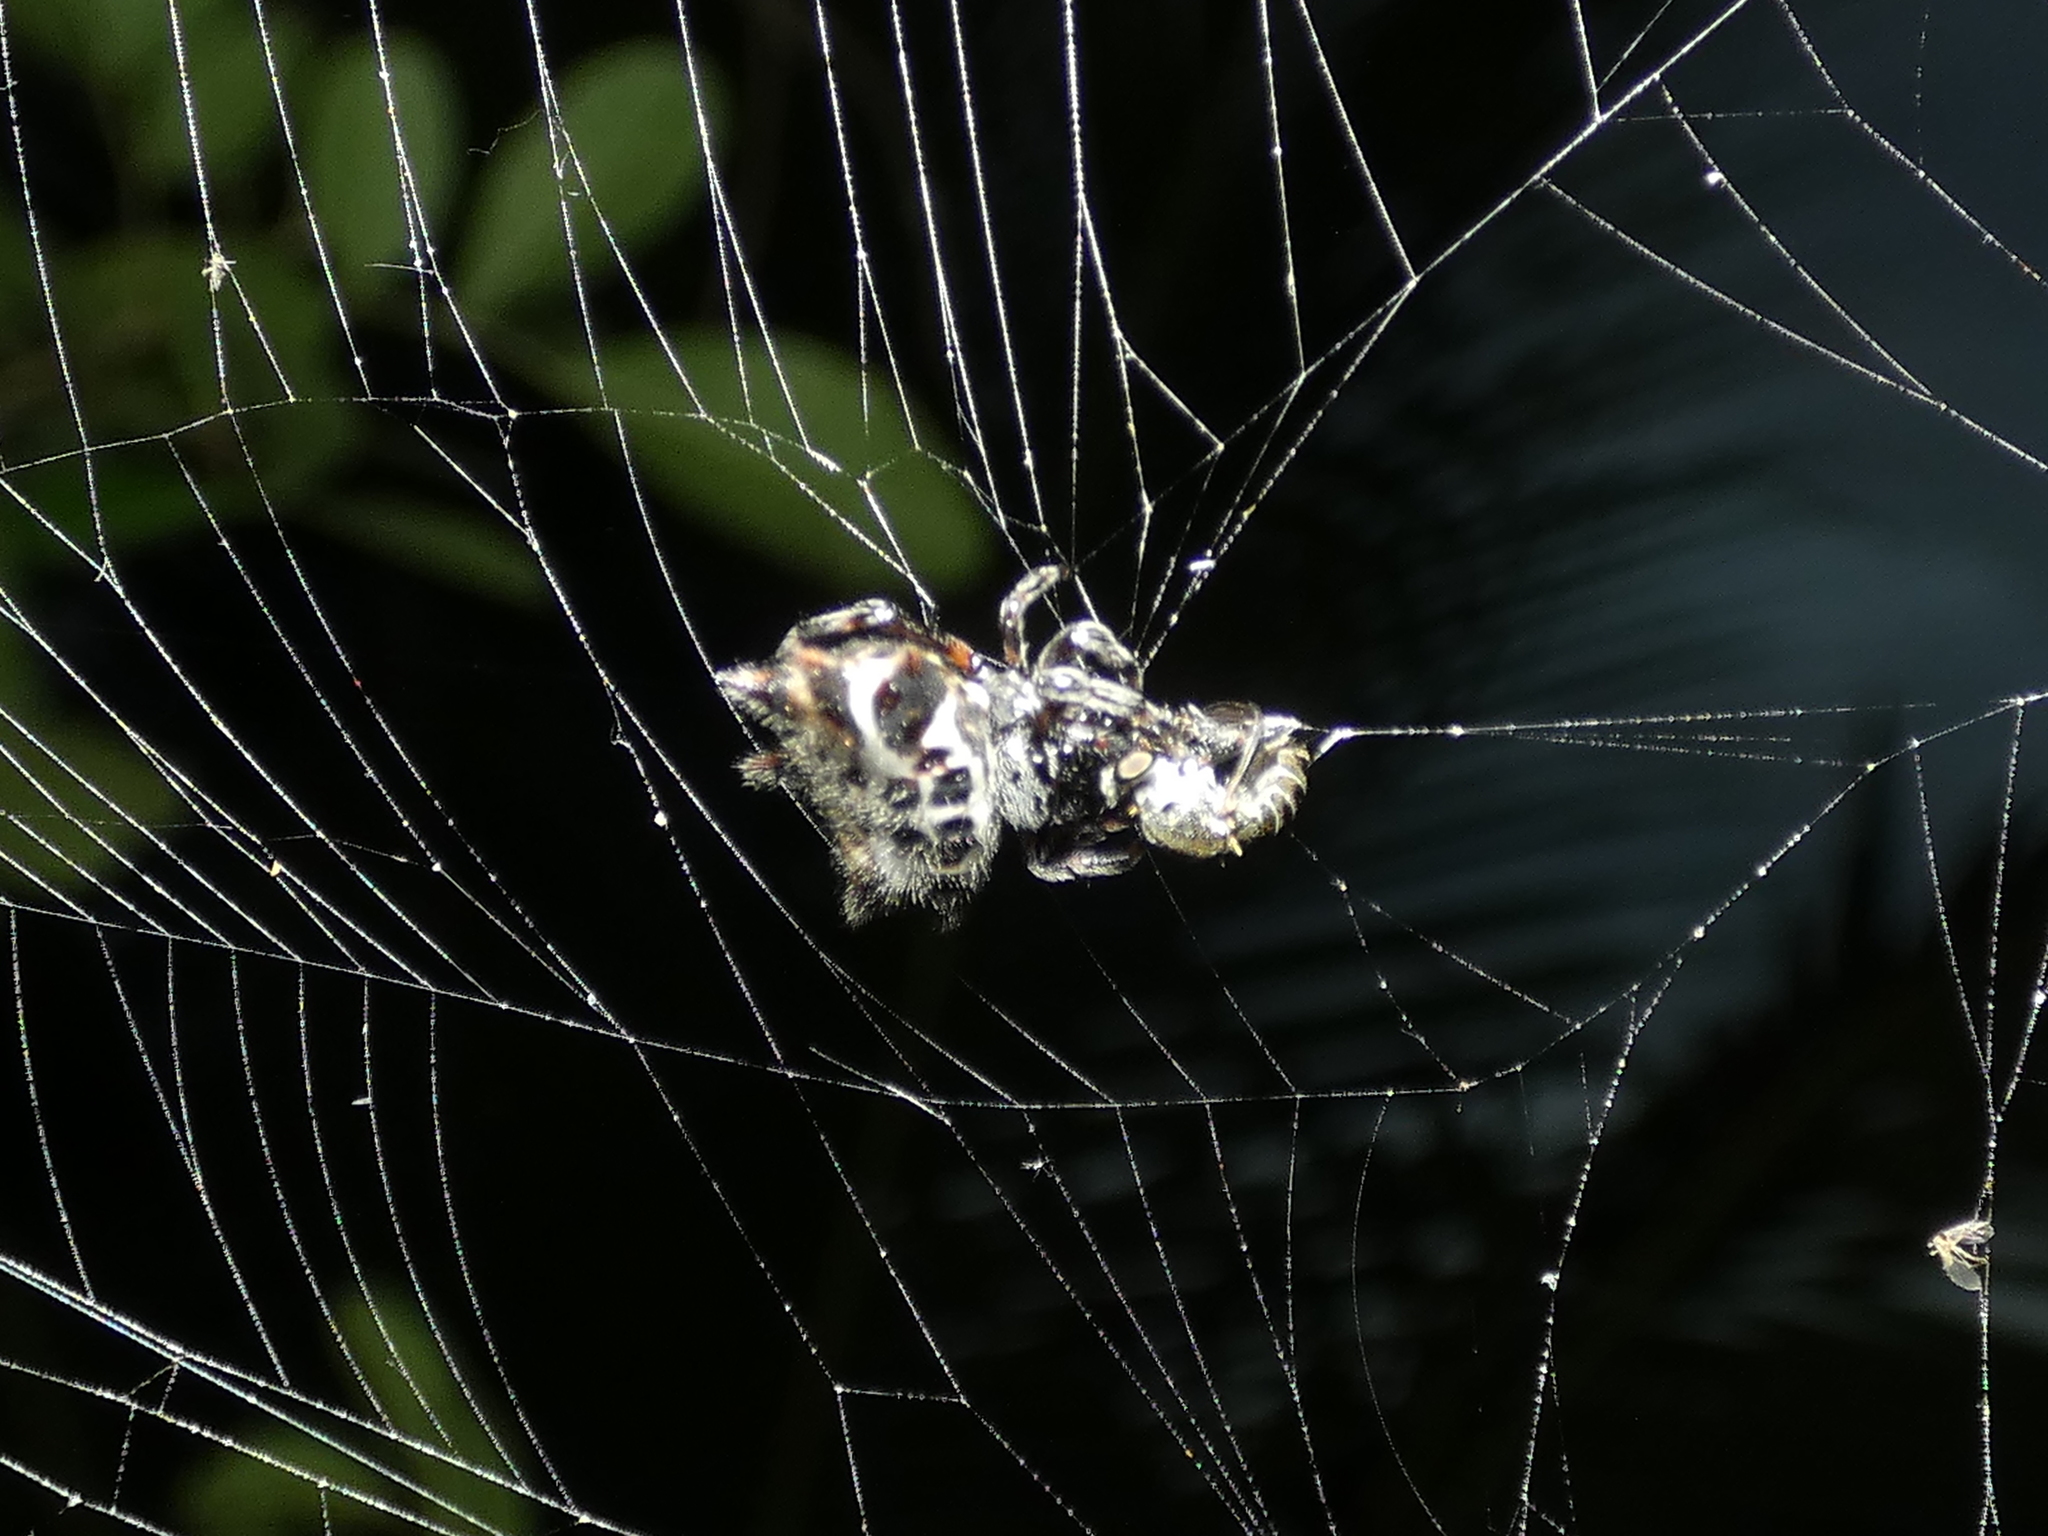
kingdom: Animalia
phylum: Arthropoda
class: Arachnida
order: Araneae
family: Araneidae
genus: Gasteracantha
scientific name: Gasteracantha cancriformis
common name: Orb weavers
